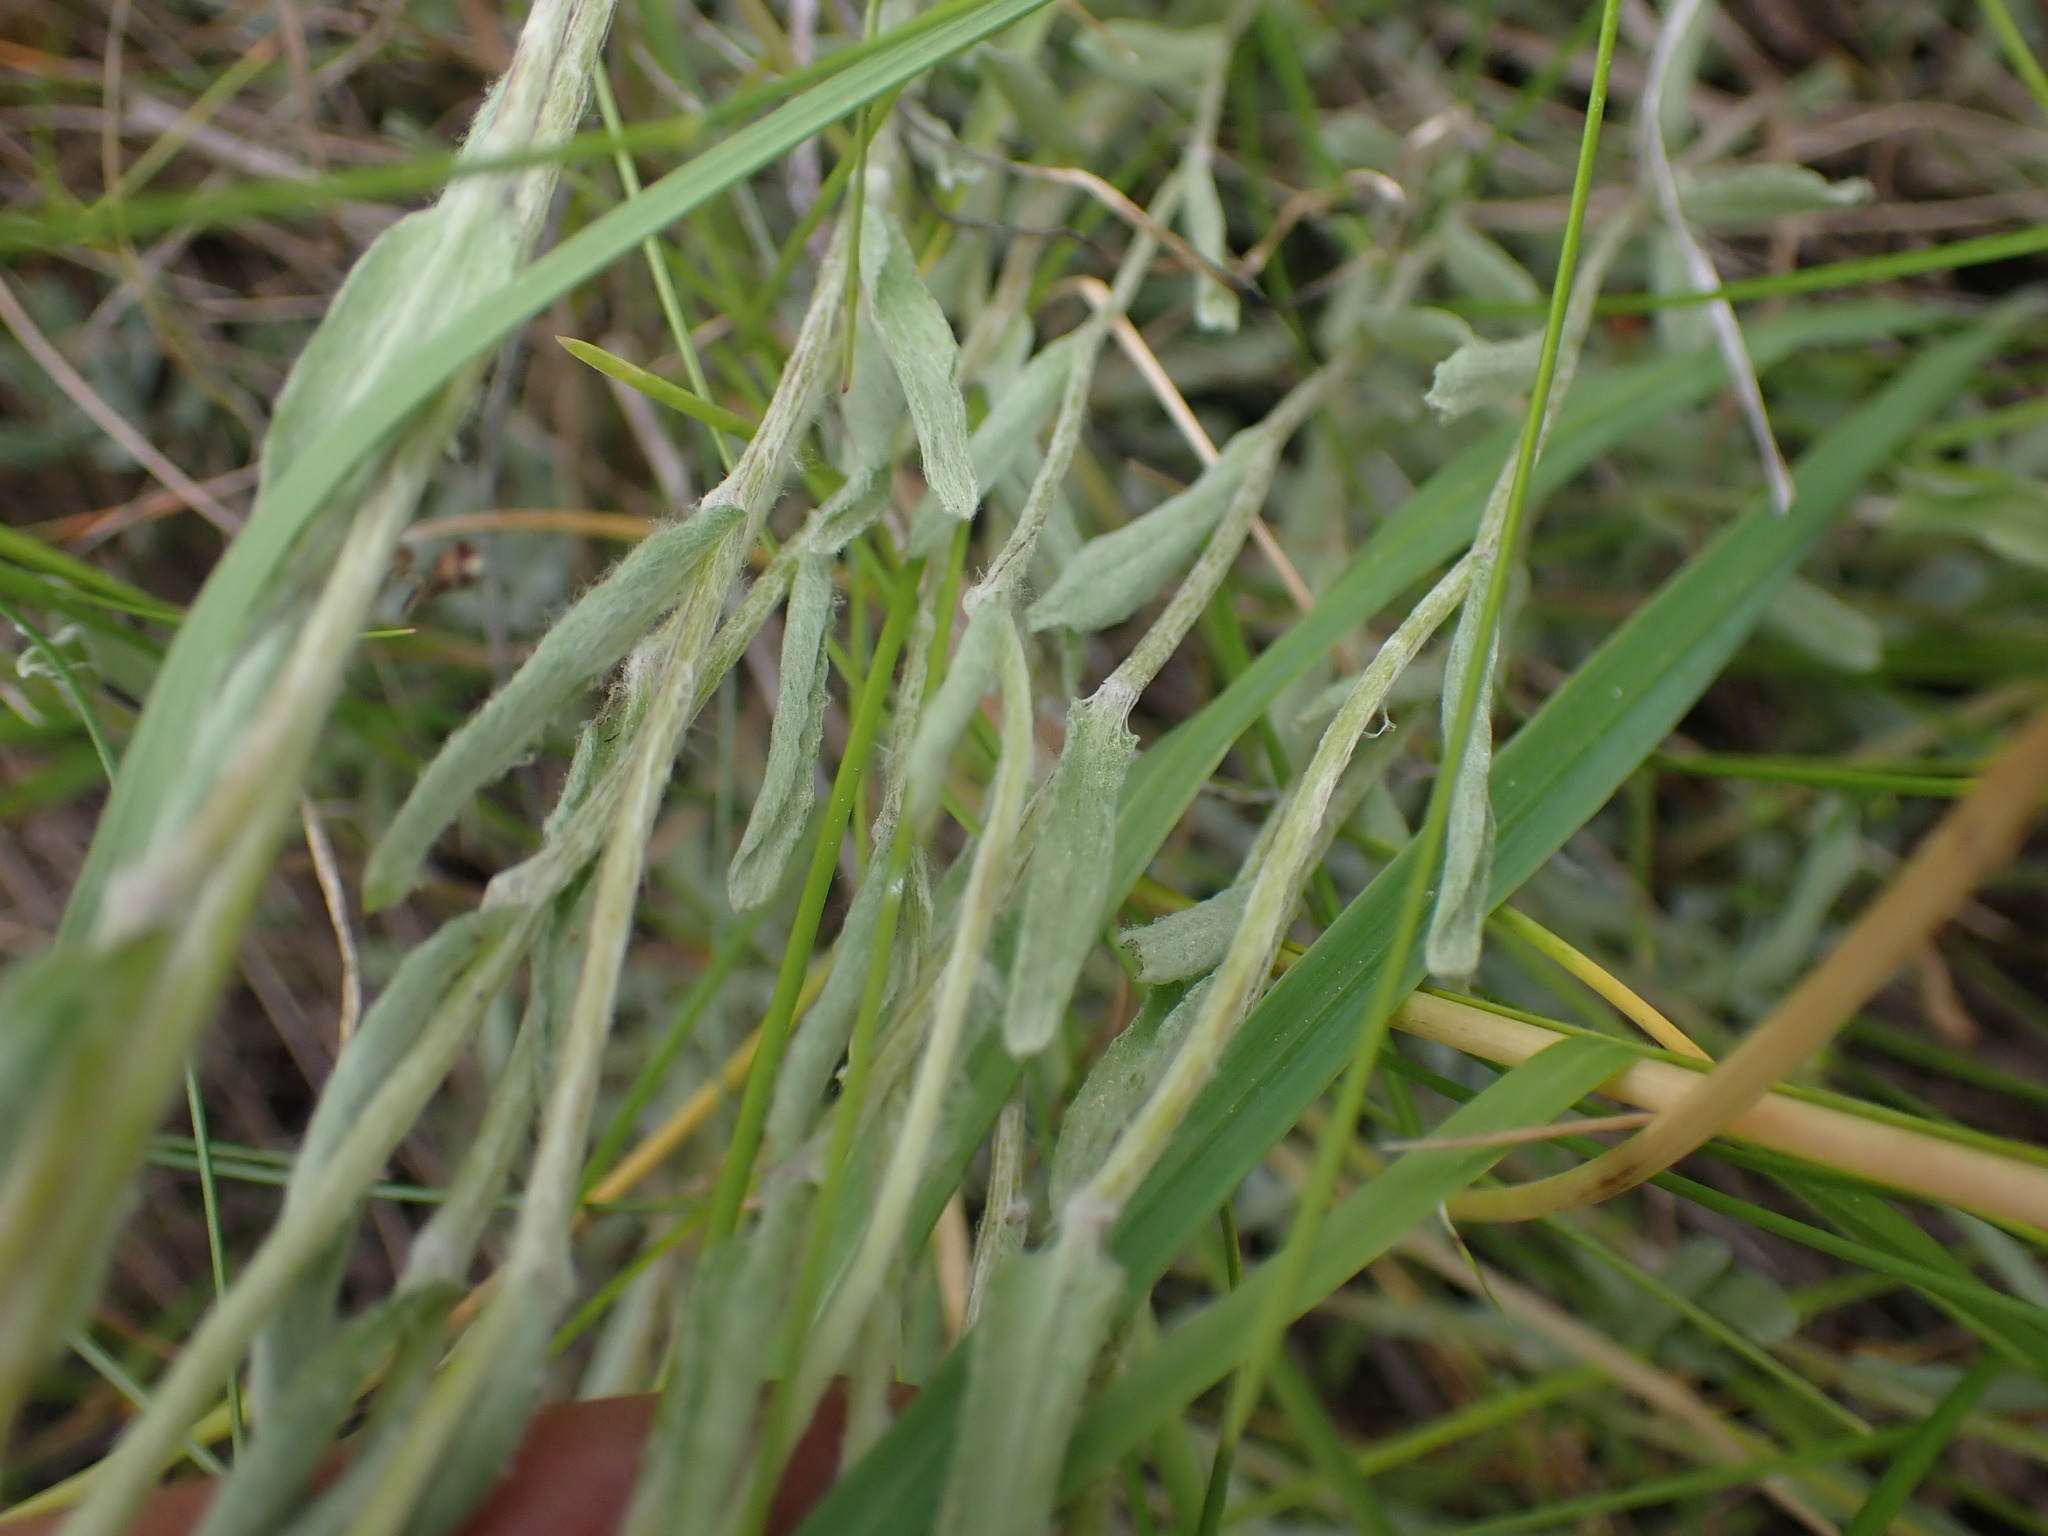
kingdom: Plantae
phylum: Tracheophyta
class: Magnoliopsida
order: Asterales
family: Asteraceae
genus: Antennaria
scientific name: Antennaria rosea
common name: Rosy pussytoes
